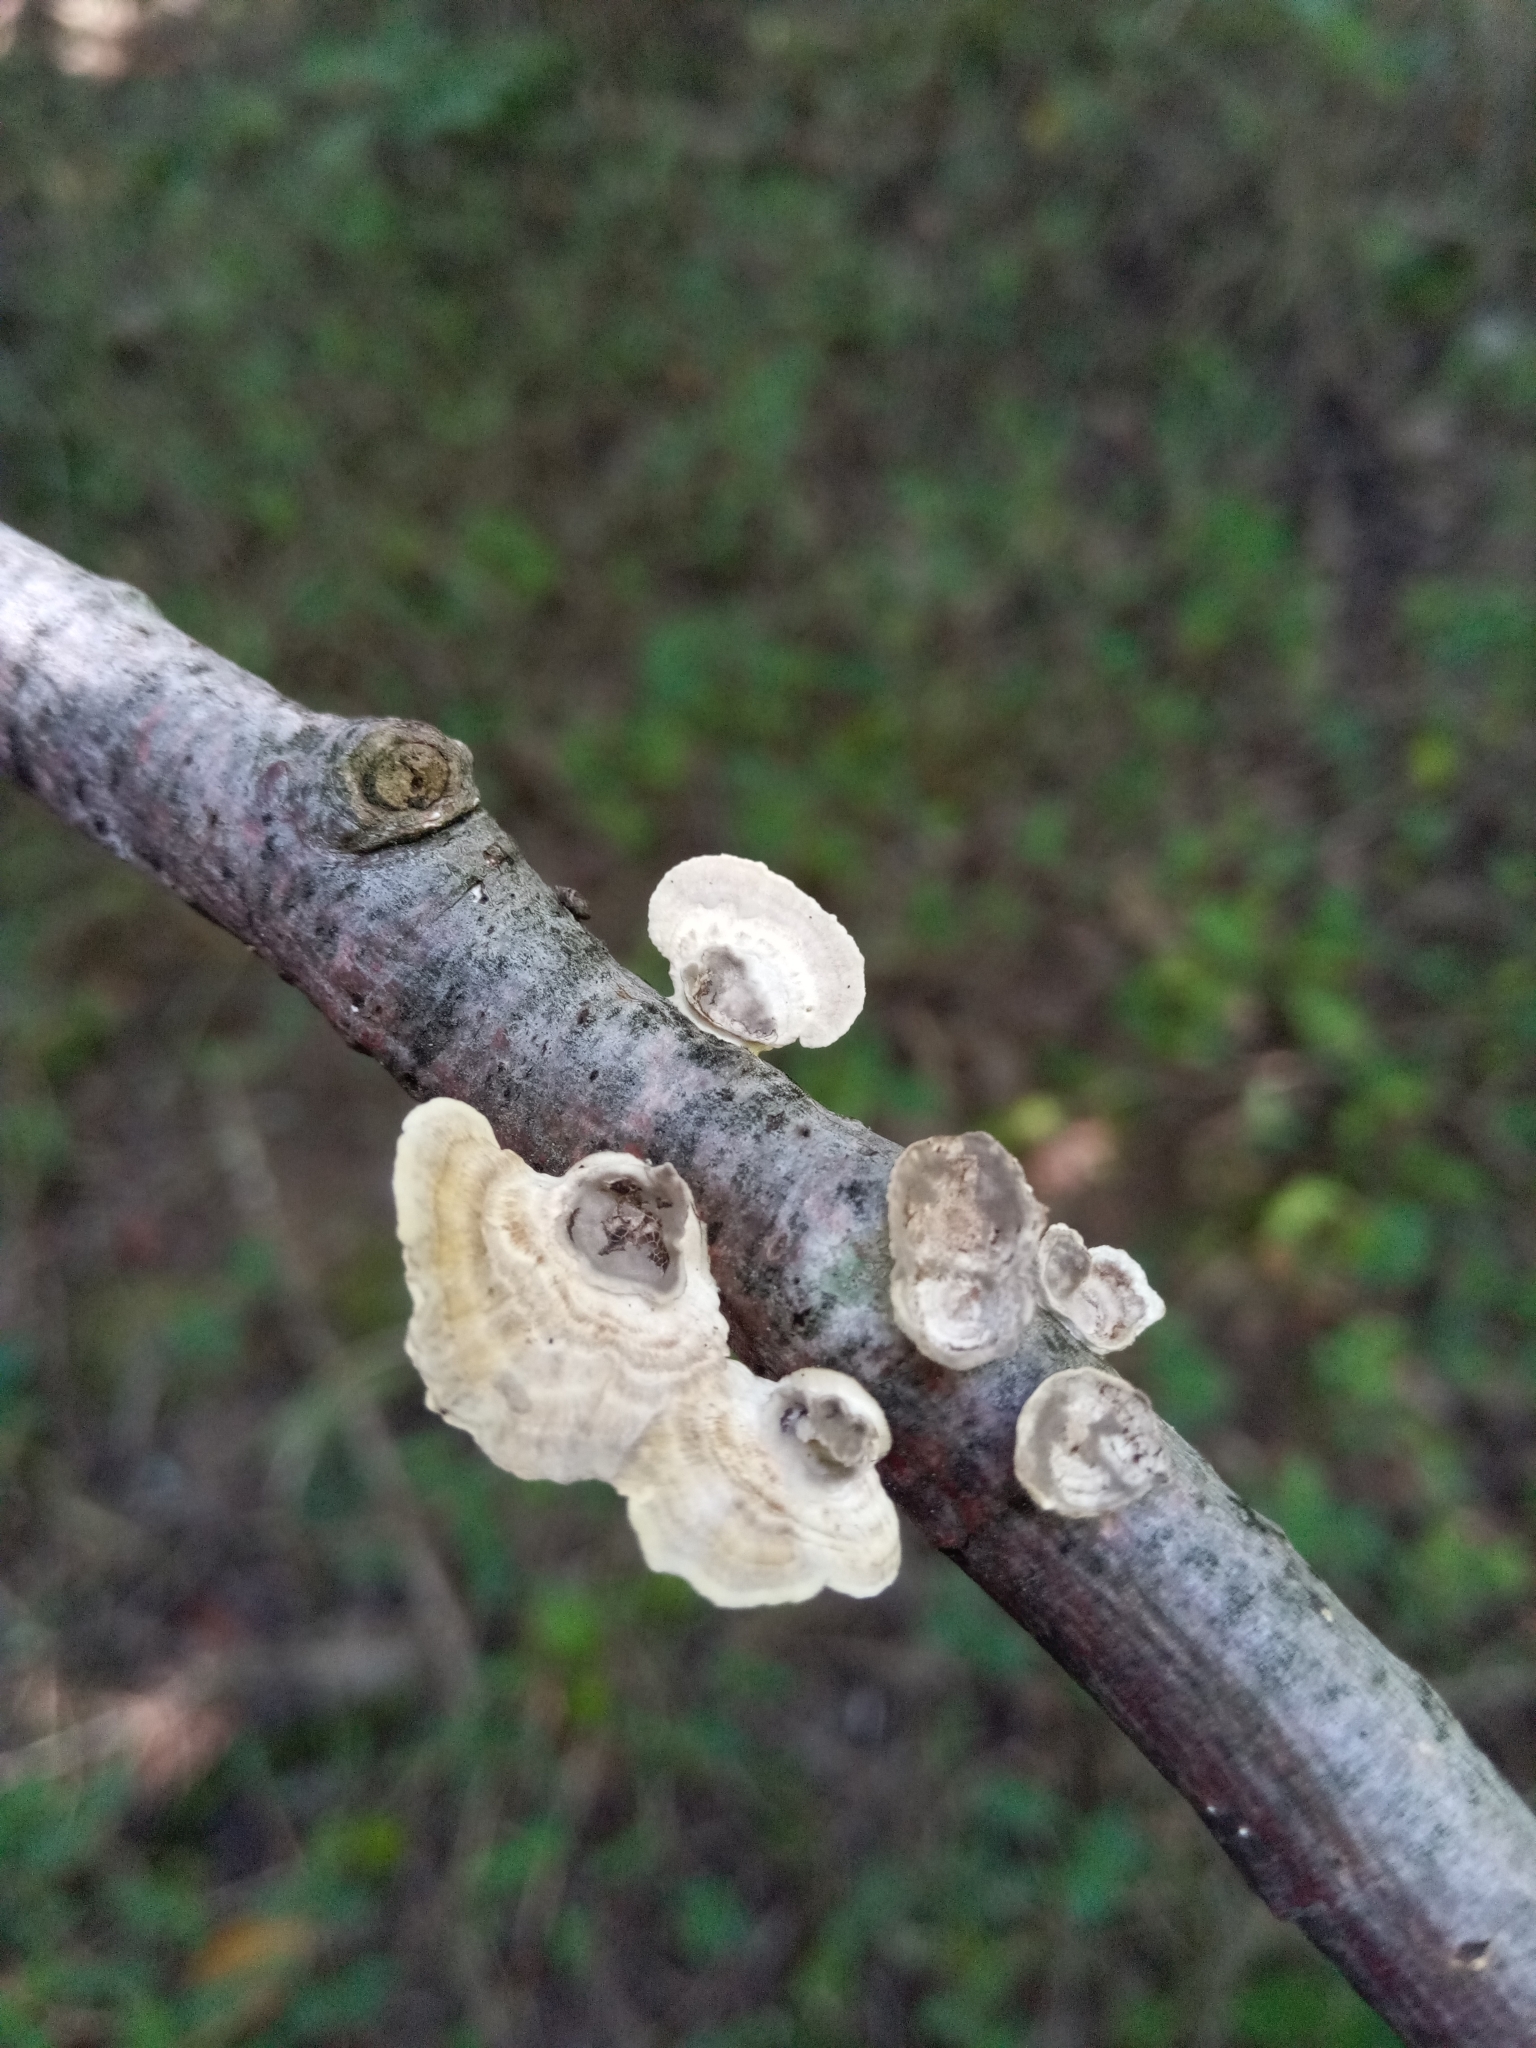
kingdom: Fungi
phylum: Basidiomycota
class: Agaricomycetes
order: Polyporales
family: Polyporaceae
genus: Poronidulus
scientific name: Poronidulus conchifer
